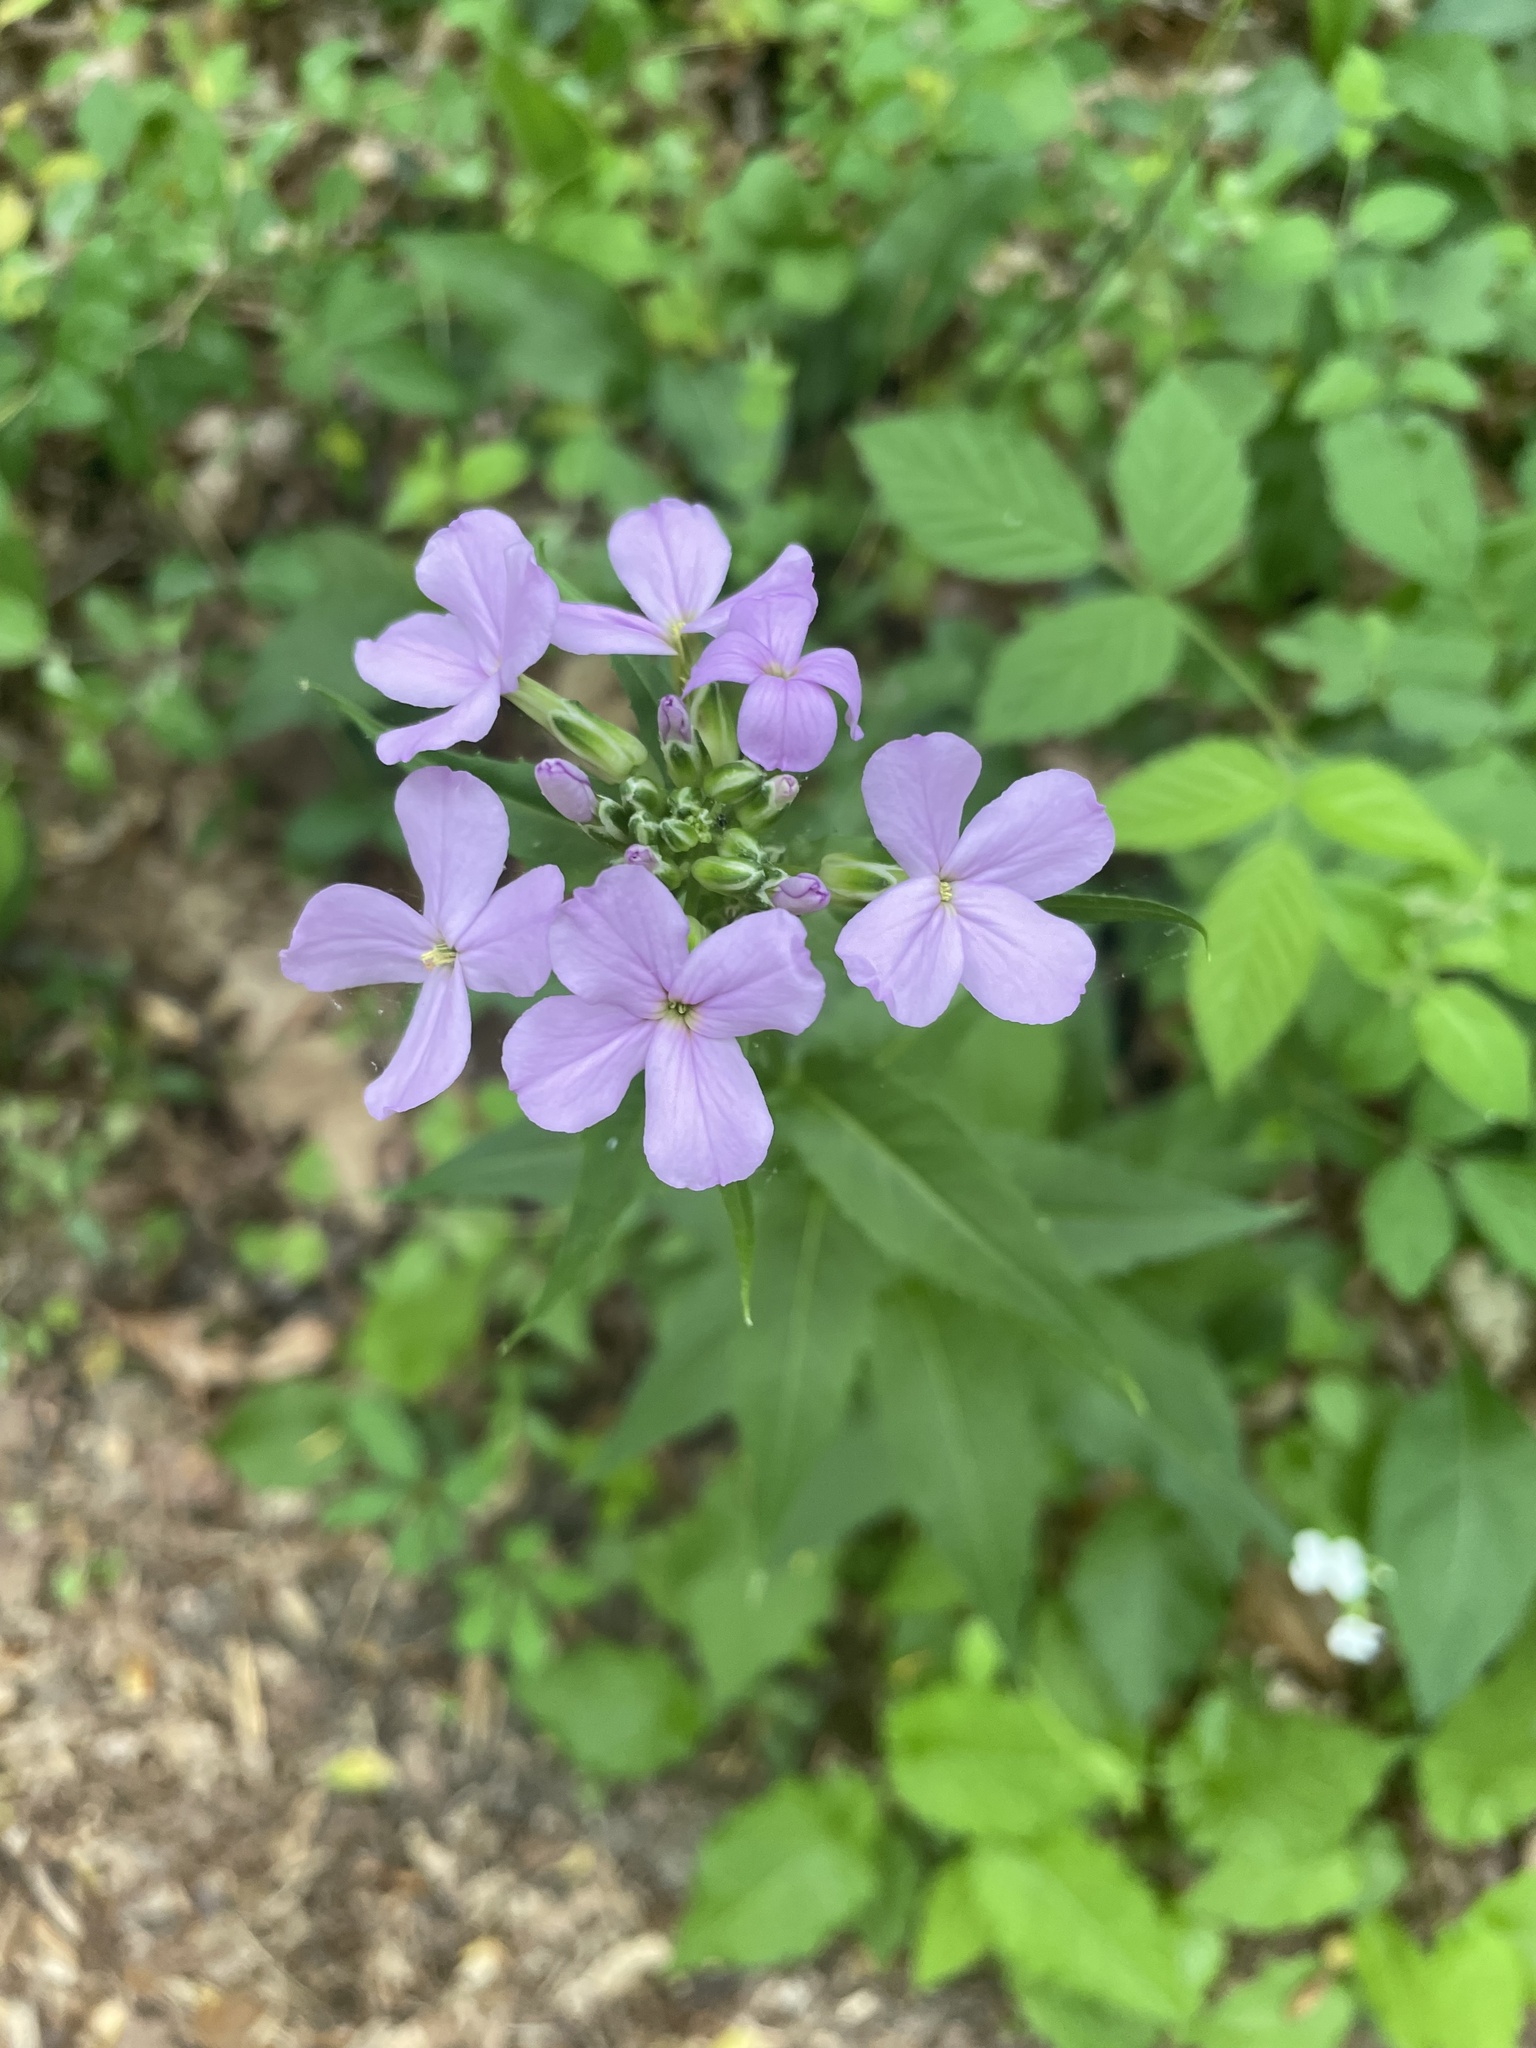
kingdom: Plantae
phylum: Tracheophyta
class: Magnoliopsida
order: Brassicales
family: Brassicaceae
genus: Hesperis
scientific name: Hesperis matronalis
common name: Dame's-violet
